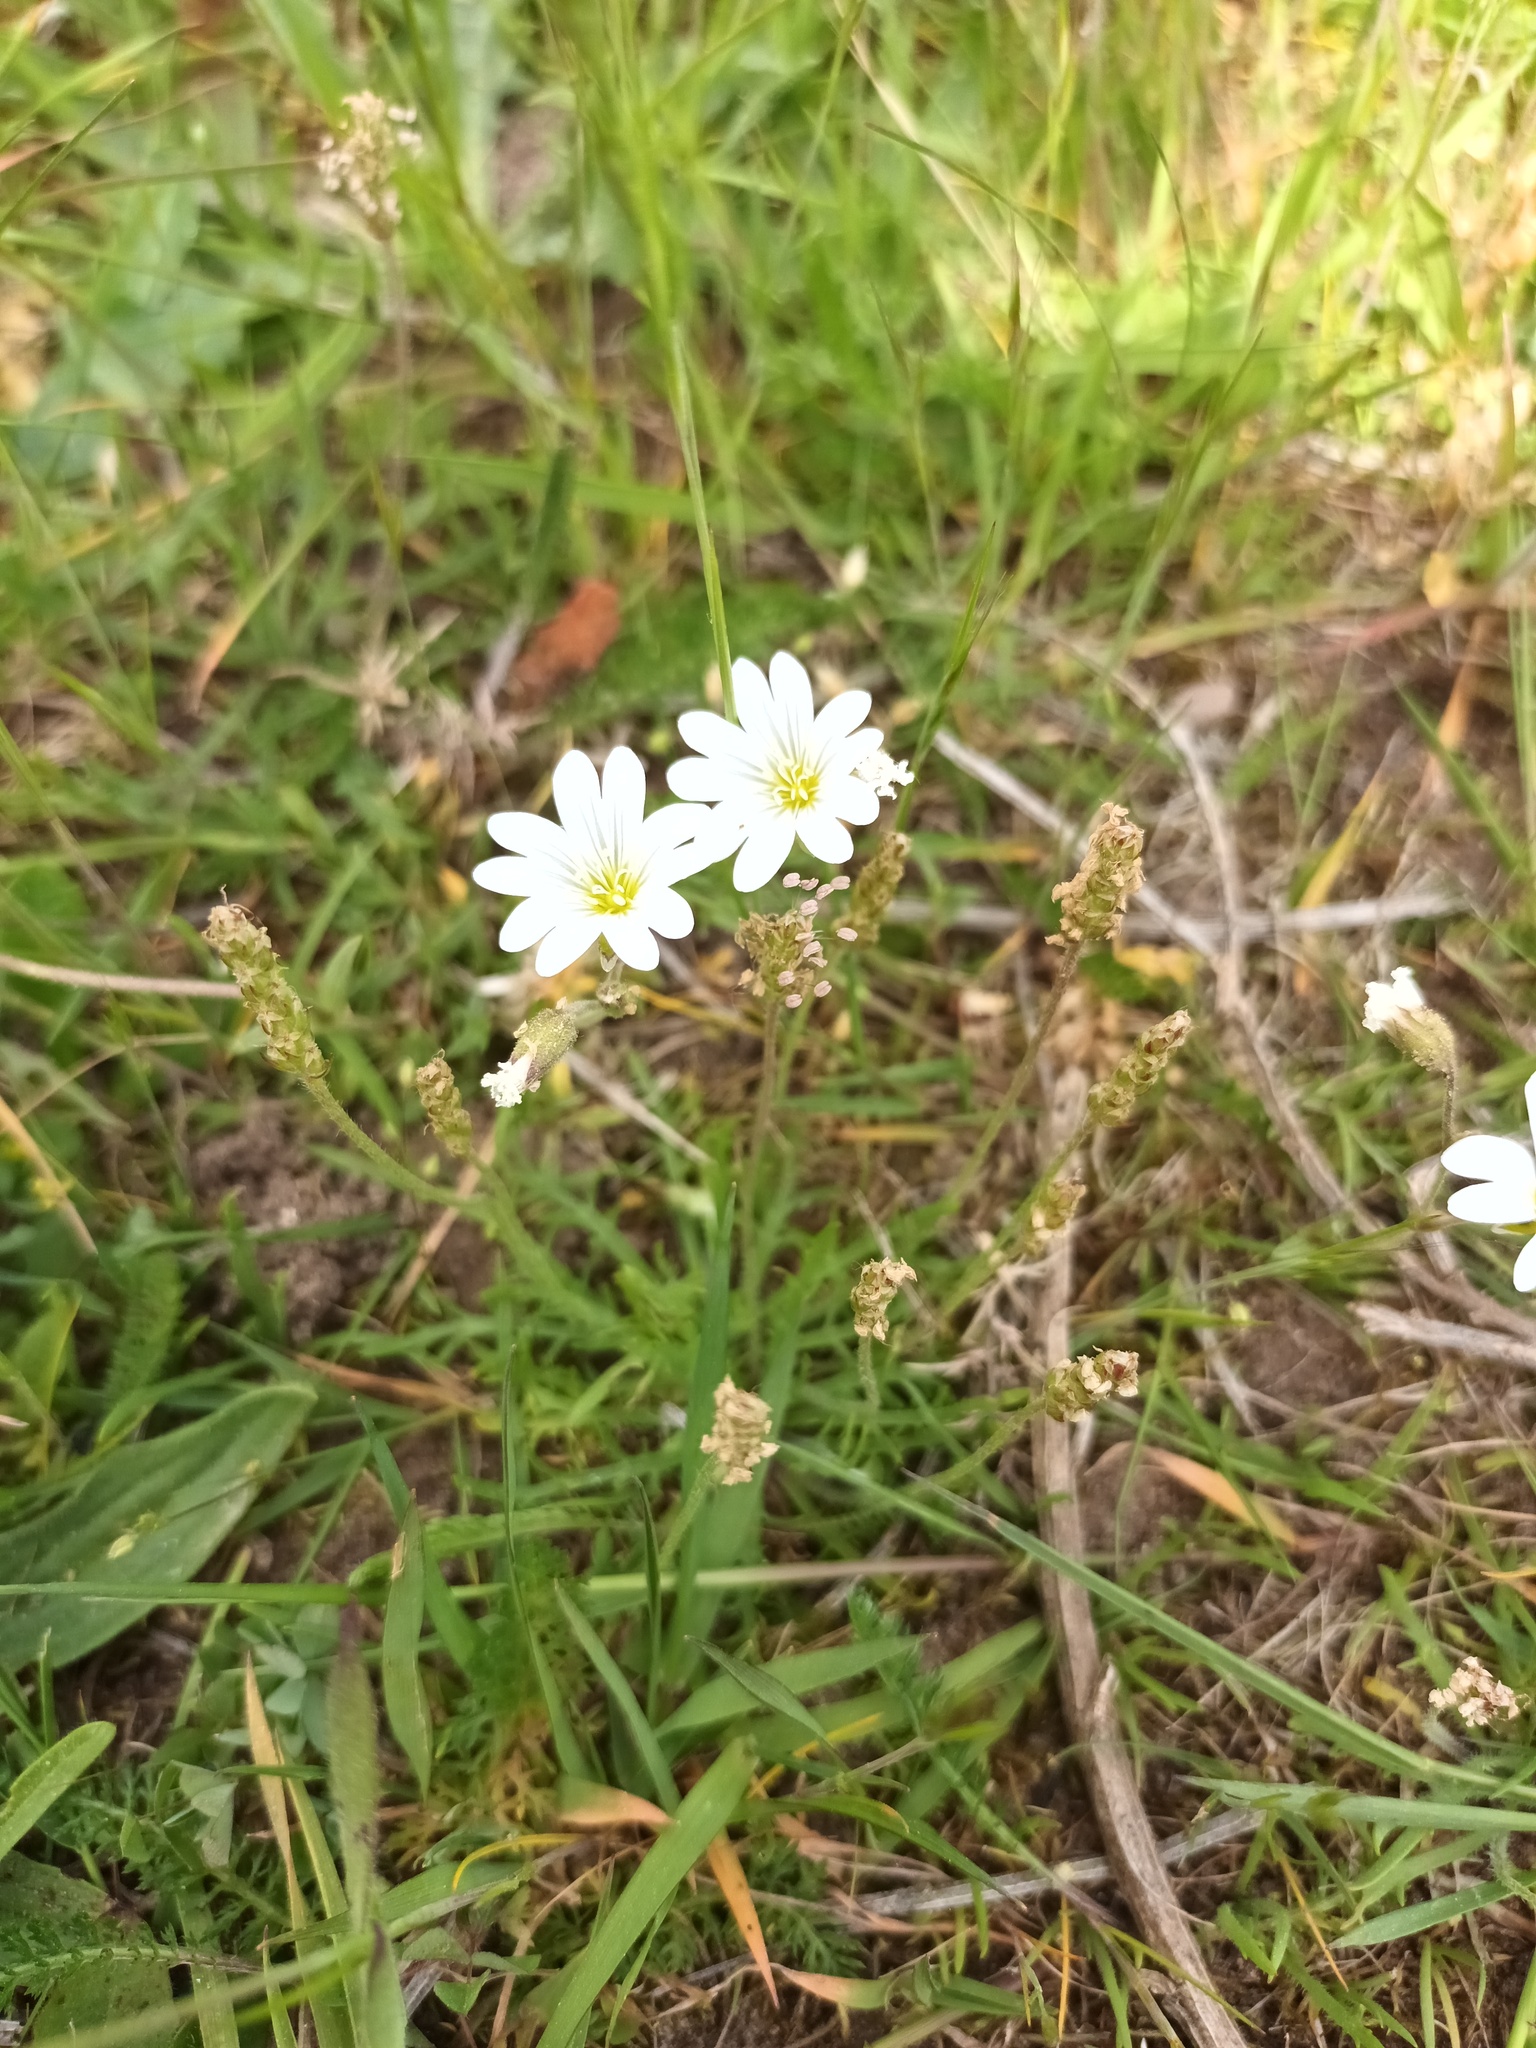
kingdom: Plantae
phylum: Tracheophyta
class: Magnoliopsida
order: Caryophyllales
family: Caryophyllaceae
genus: Cerastium
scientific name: Cerastium arvense
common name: Field mouse-ear
